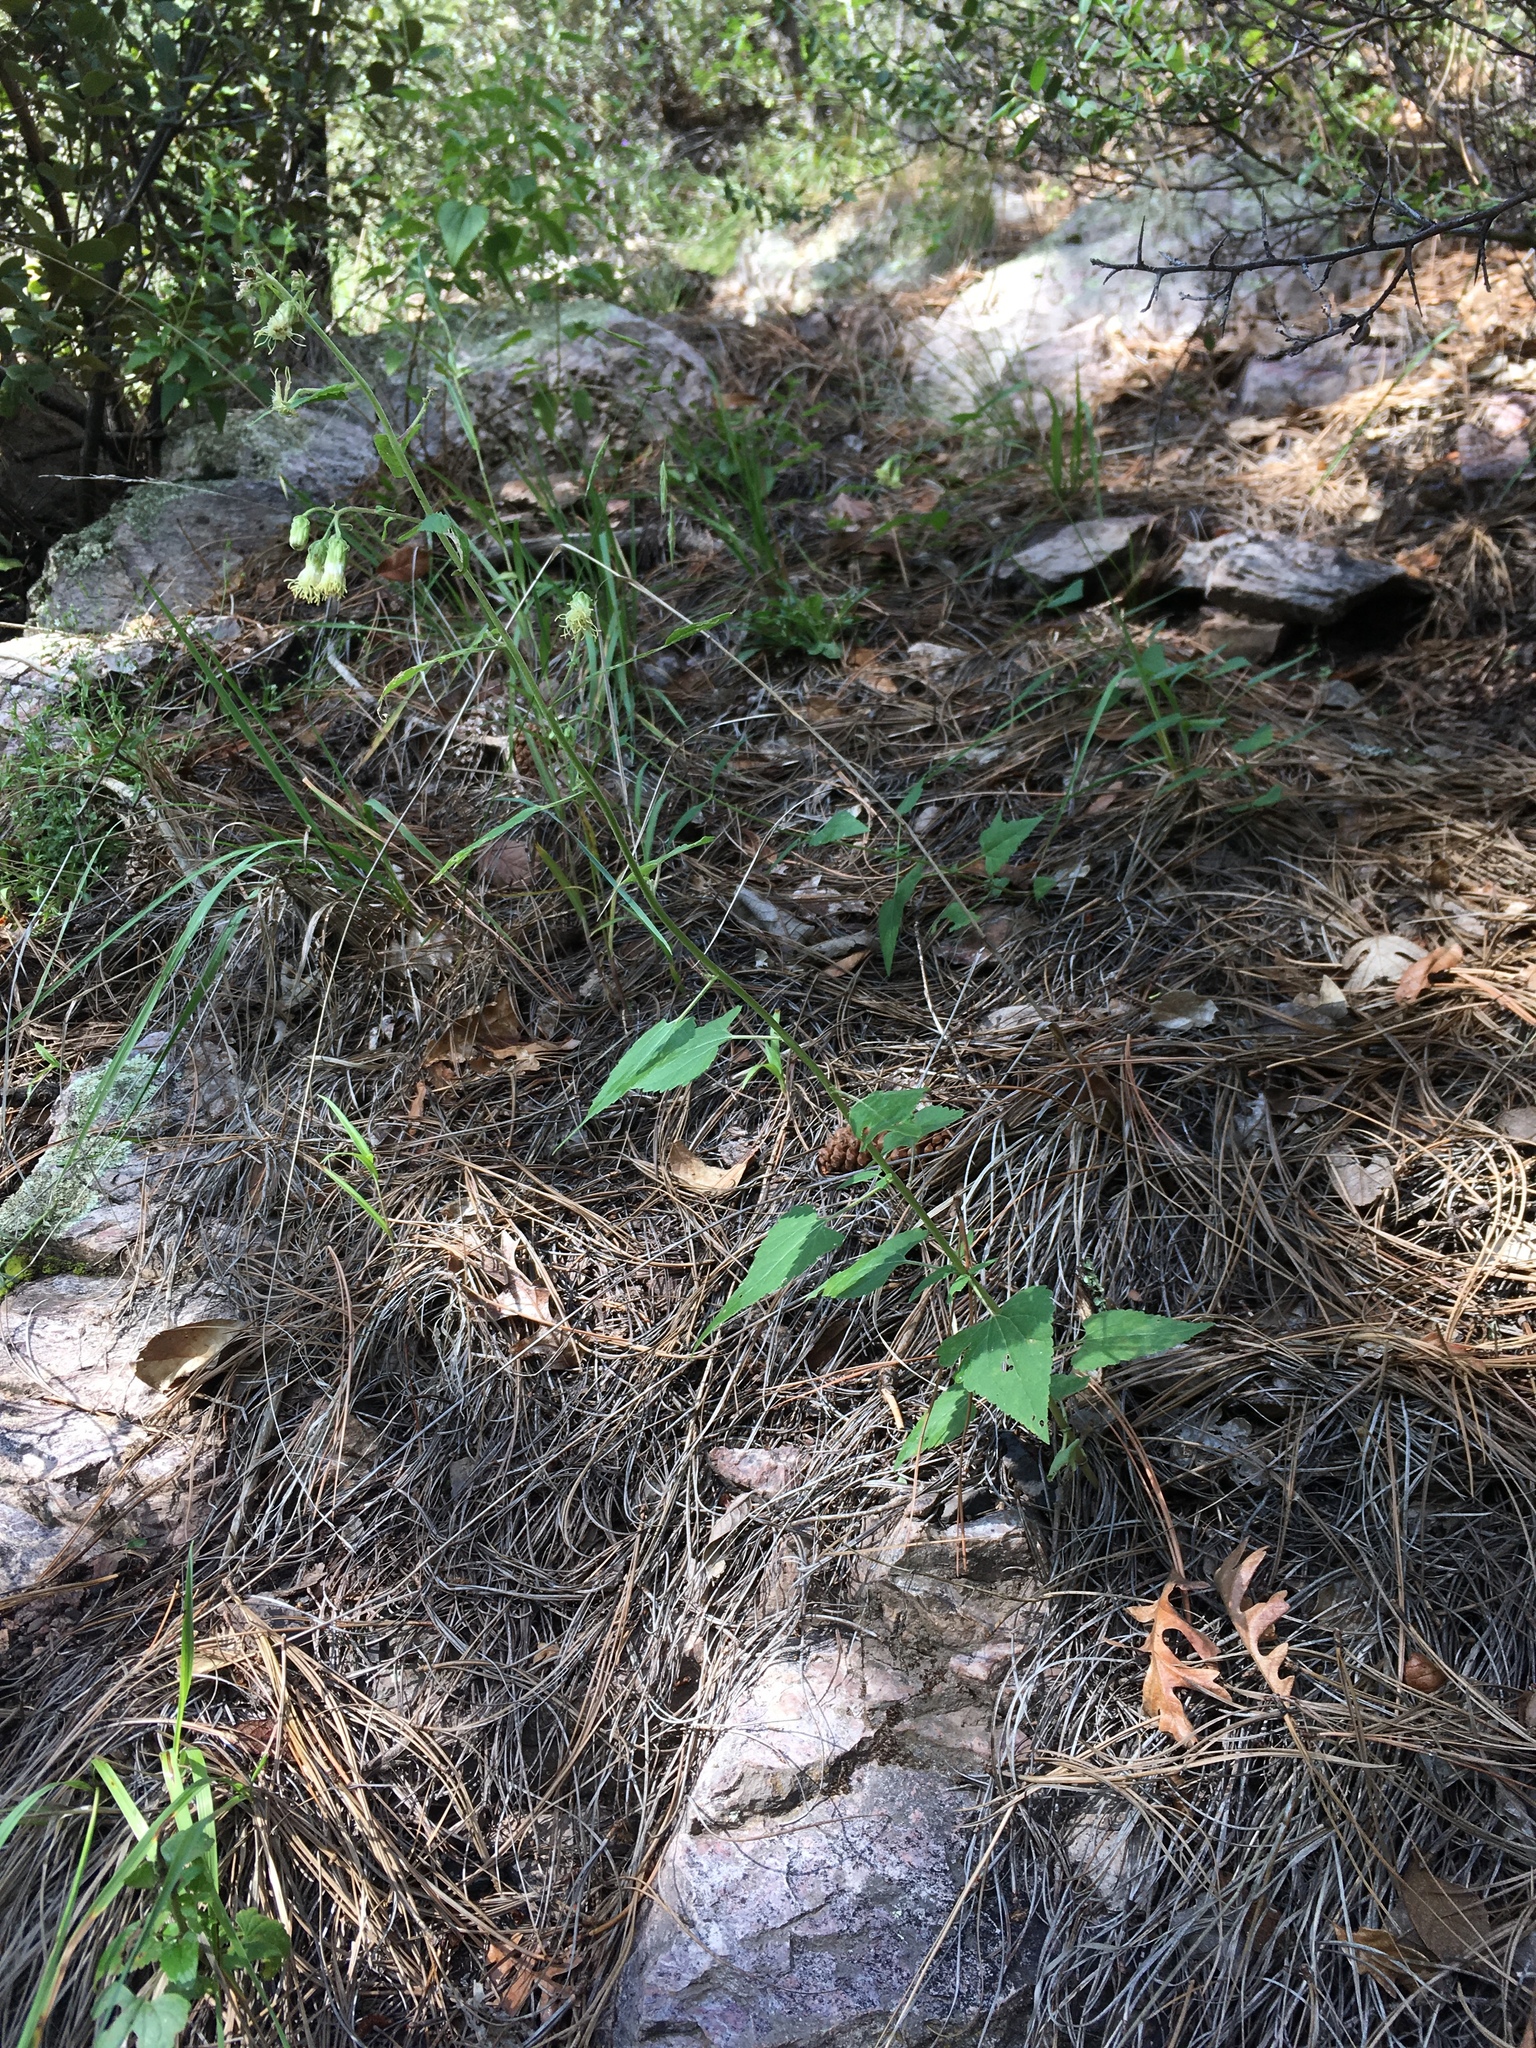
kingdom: Plantae
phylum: Tracheophyta
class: Magnoliopsida
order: Asterales
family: Asteraceae
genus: Brickellia
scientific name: Brickellia grandiflora
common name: Large-flowered brickellia
